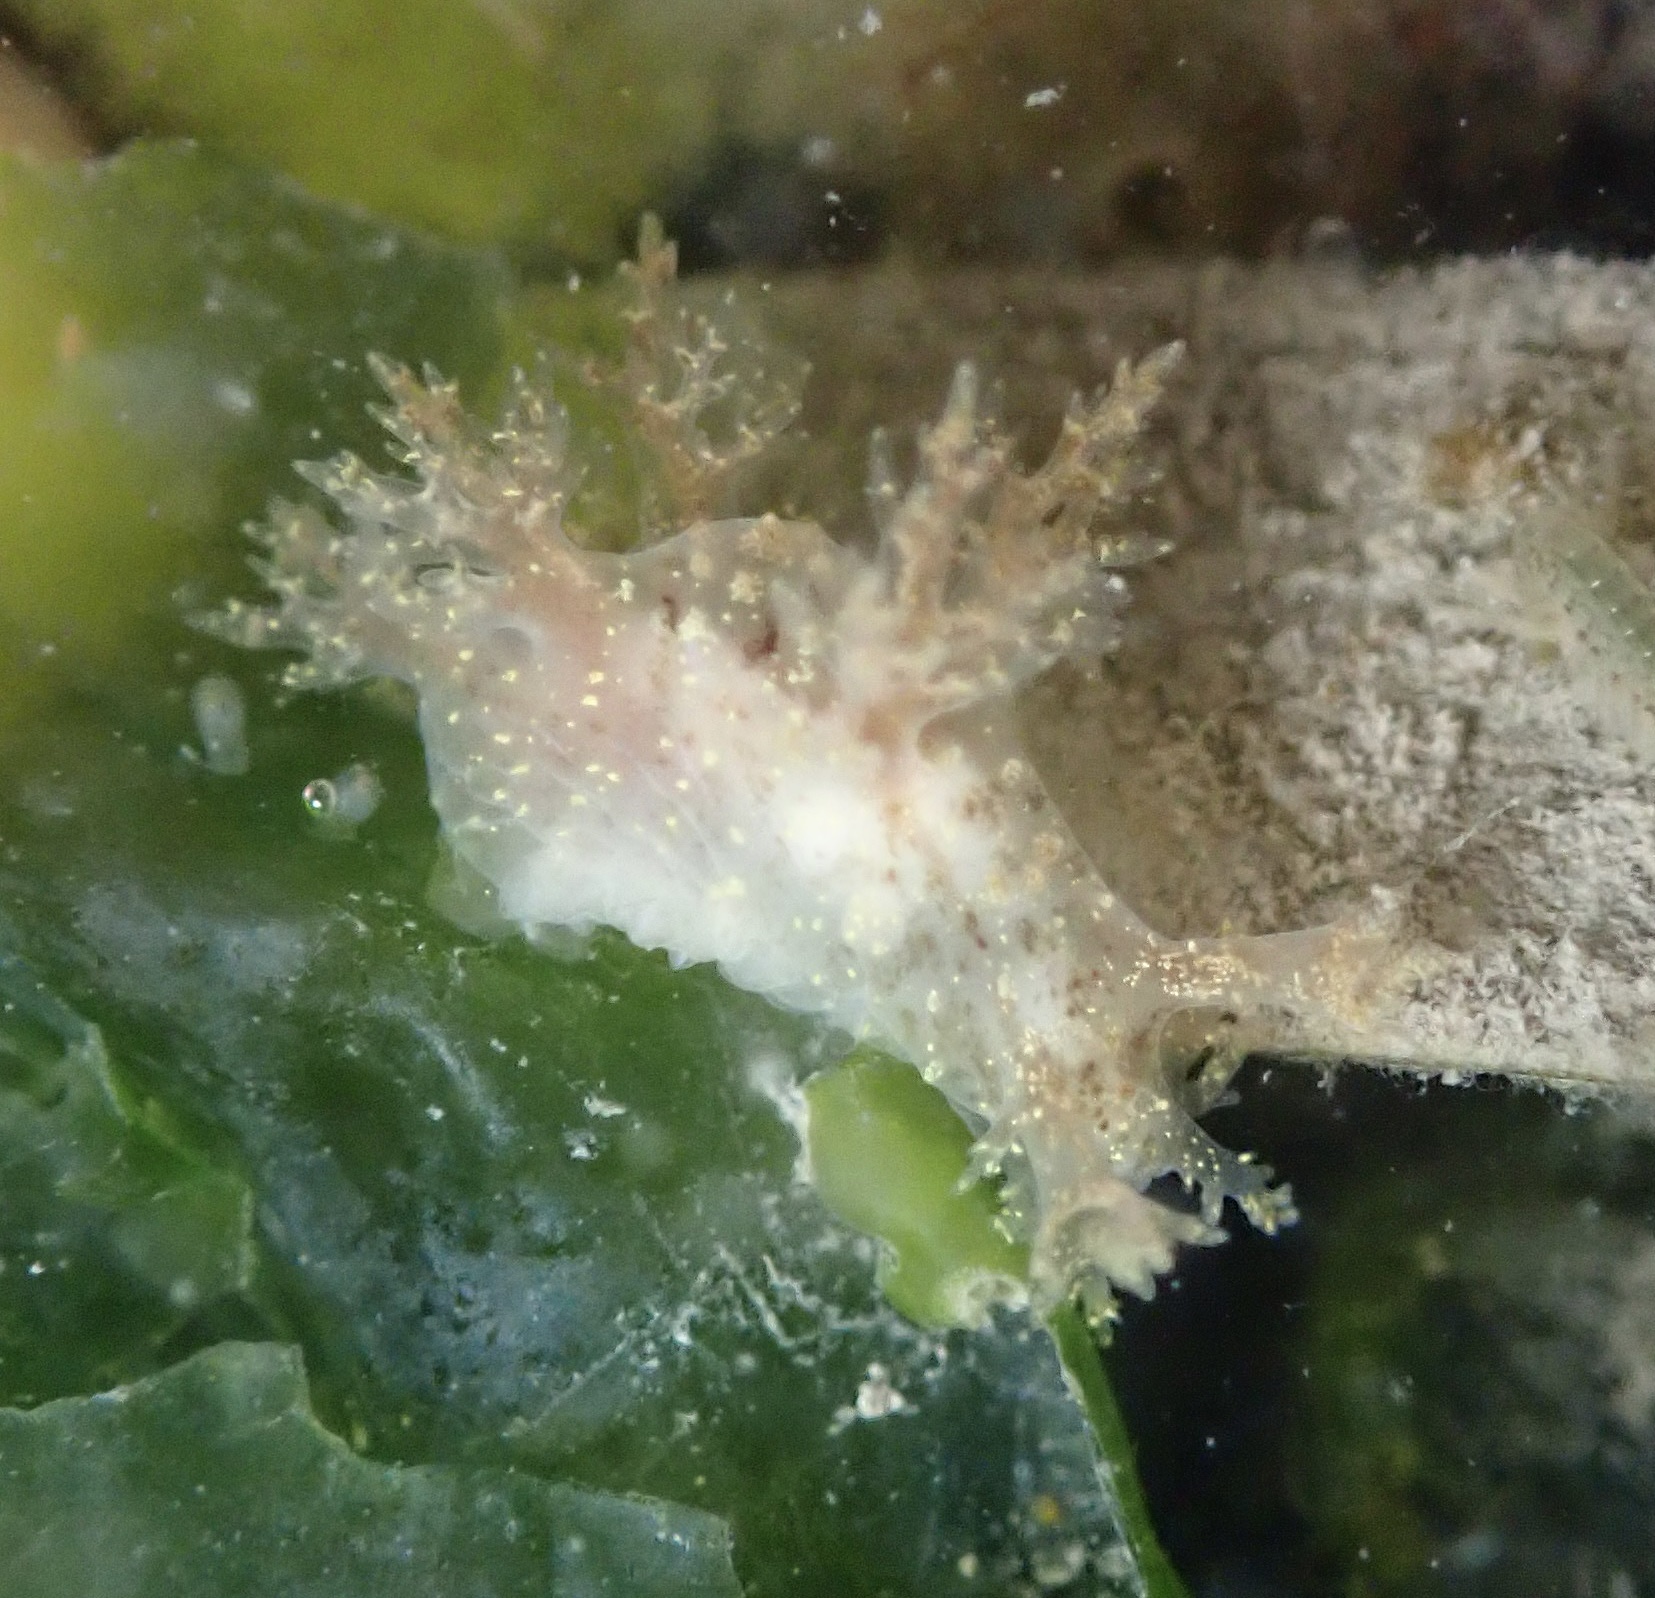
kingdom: Animalia
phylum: Mollusca
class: Gastropoda
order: Nudibranchia
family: Dendronotidae
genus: Dendronotus
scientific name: Dendronotus venustus
